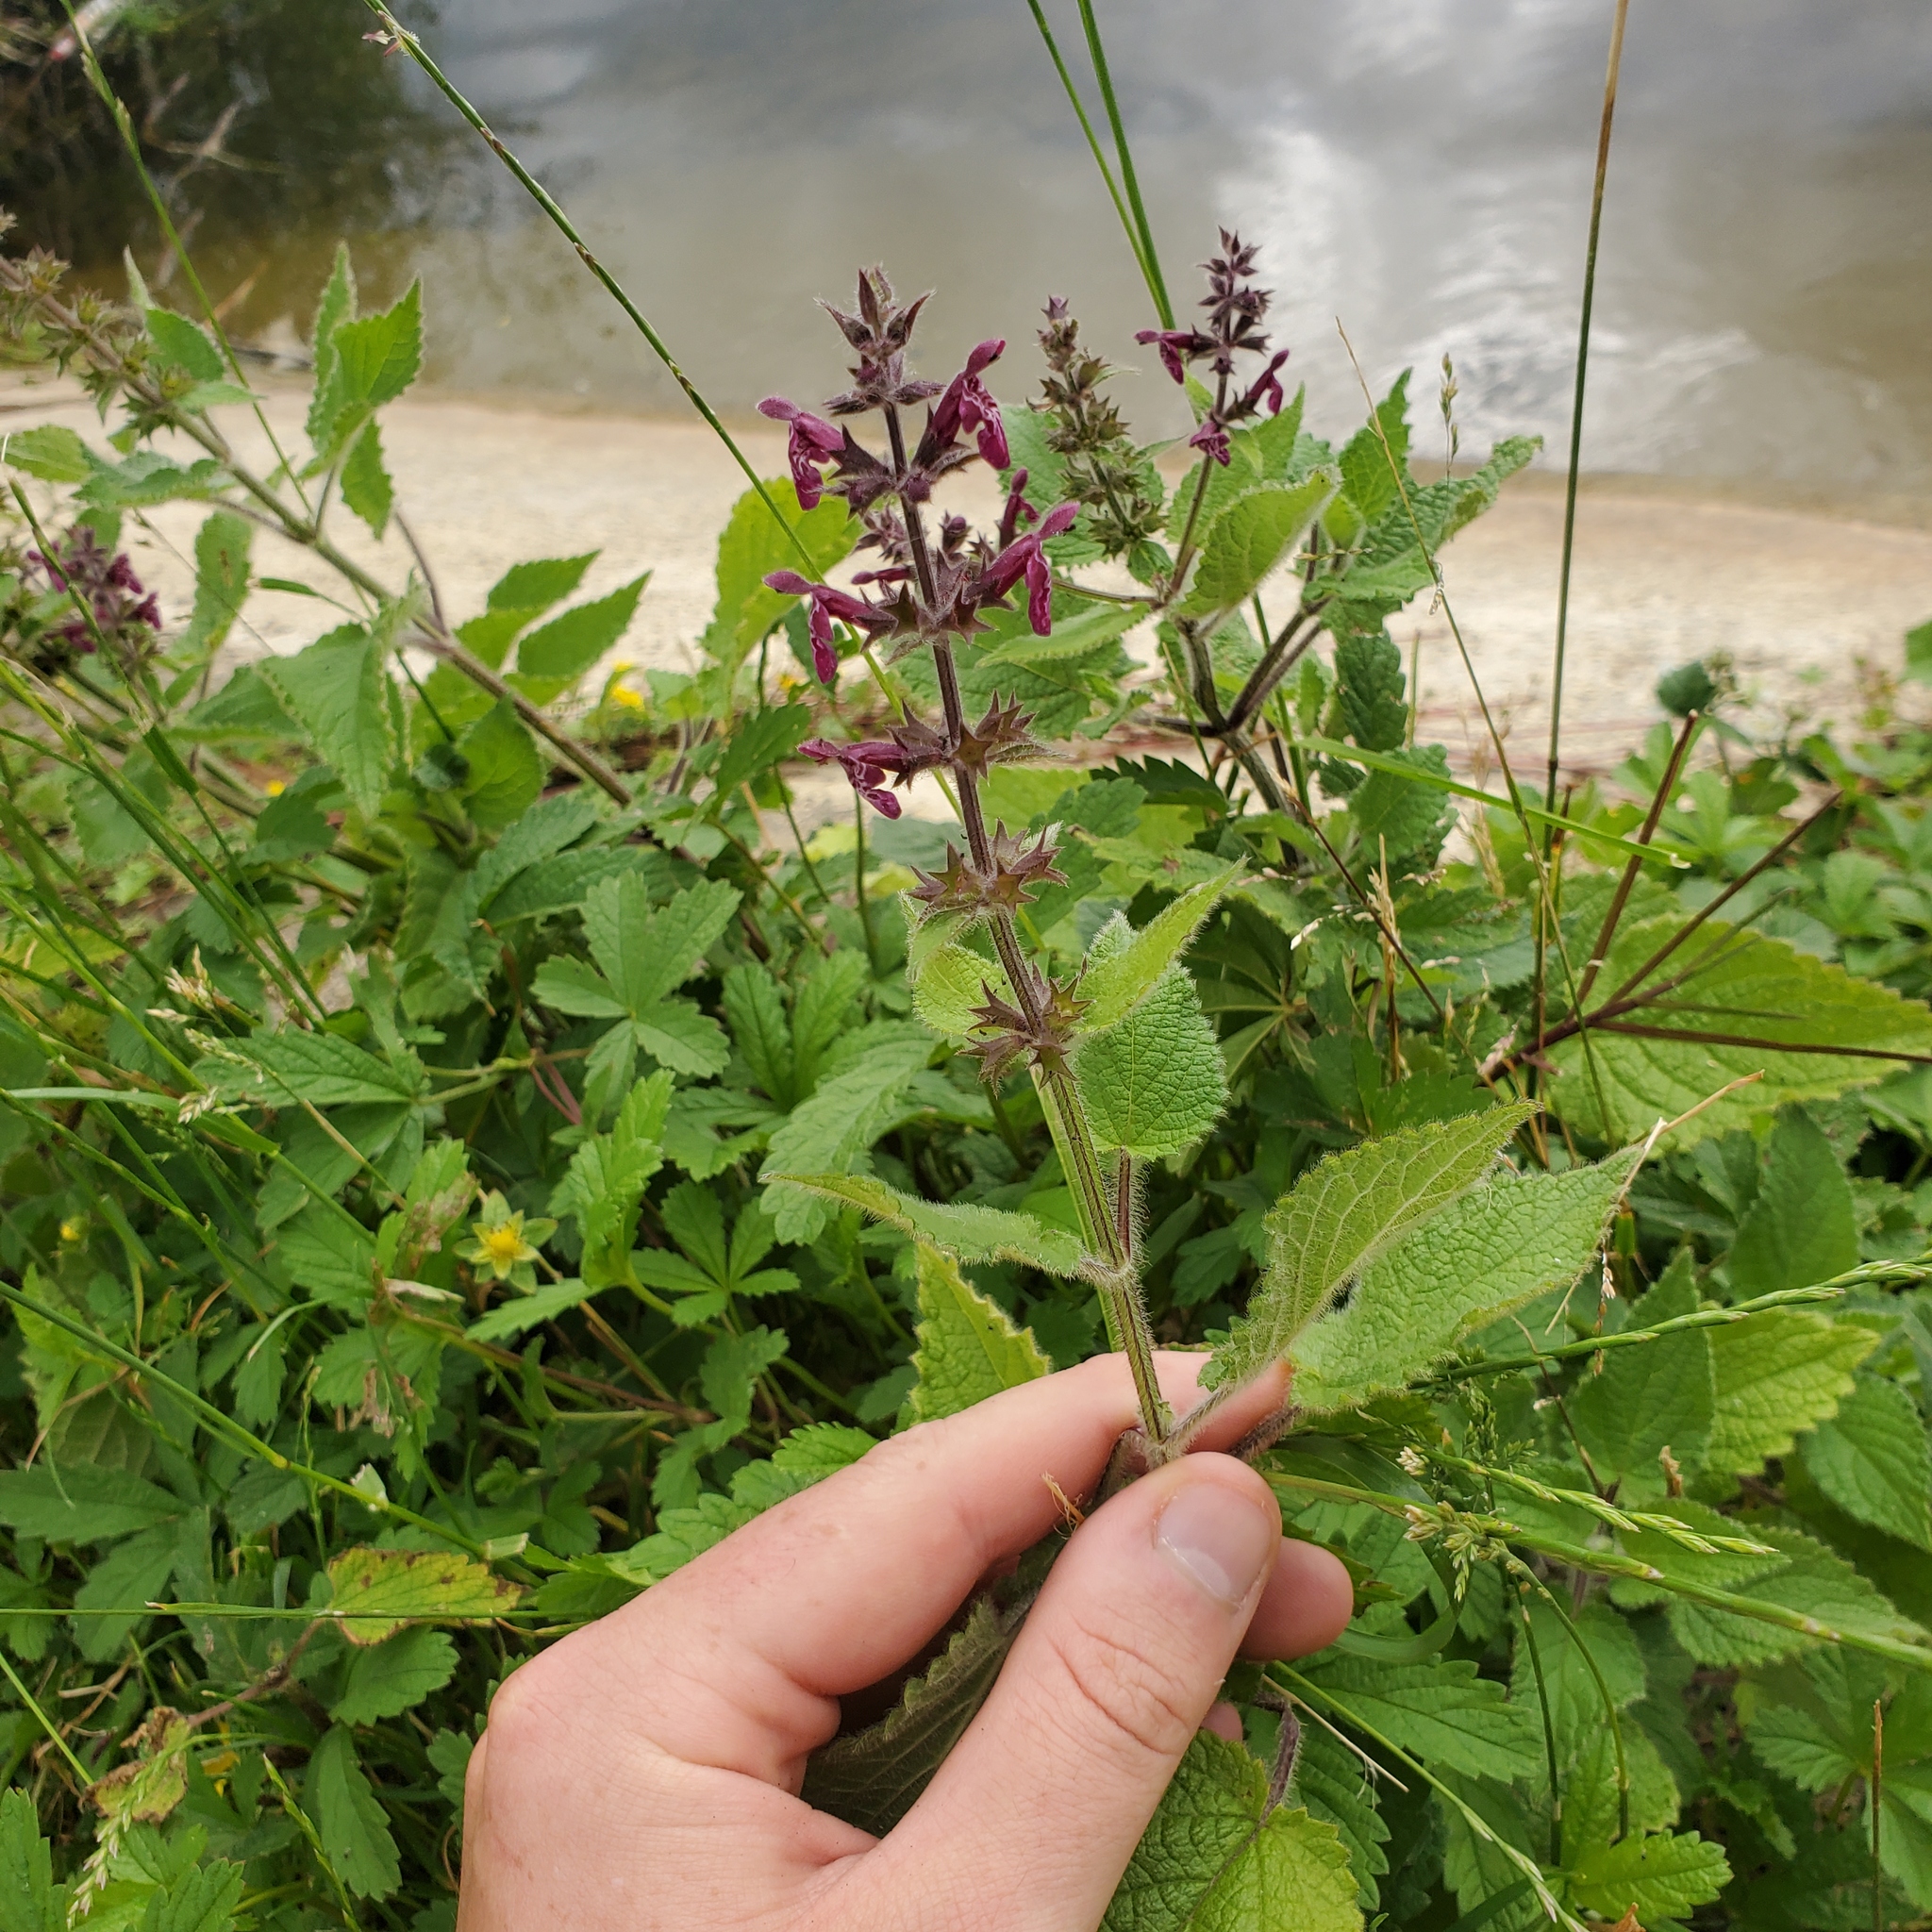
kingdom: Plantae
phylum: Tracheophyta
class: Magnoliopsida
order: Lamiales
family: Lamiaceae
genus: Stachys
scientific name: Stachys sylvatica
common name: Hedge woundwort
